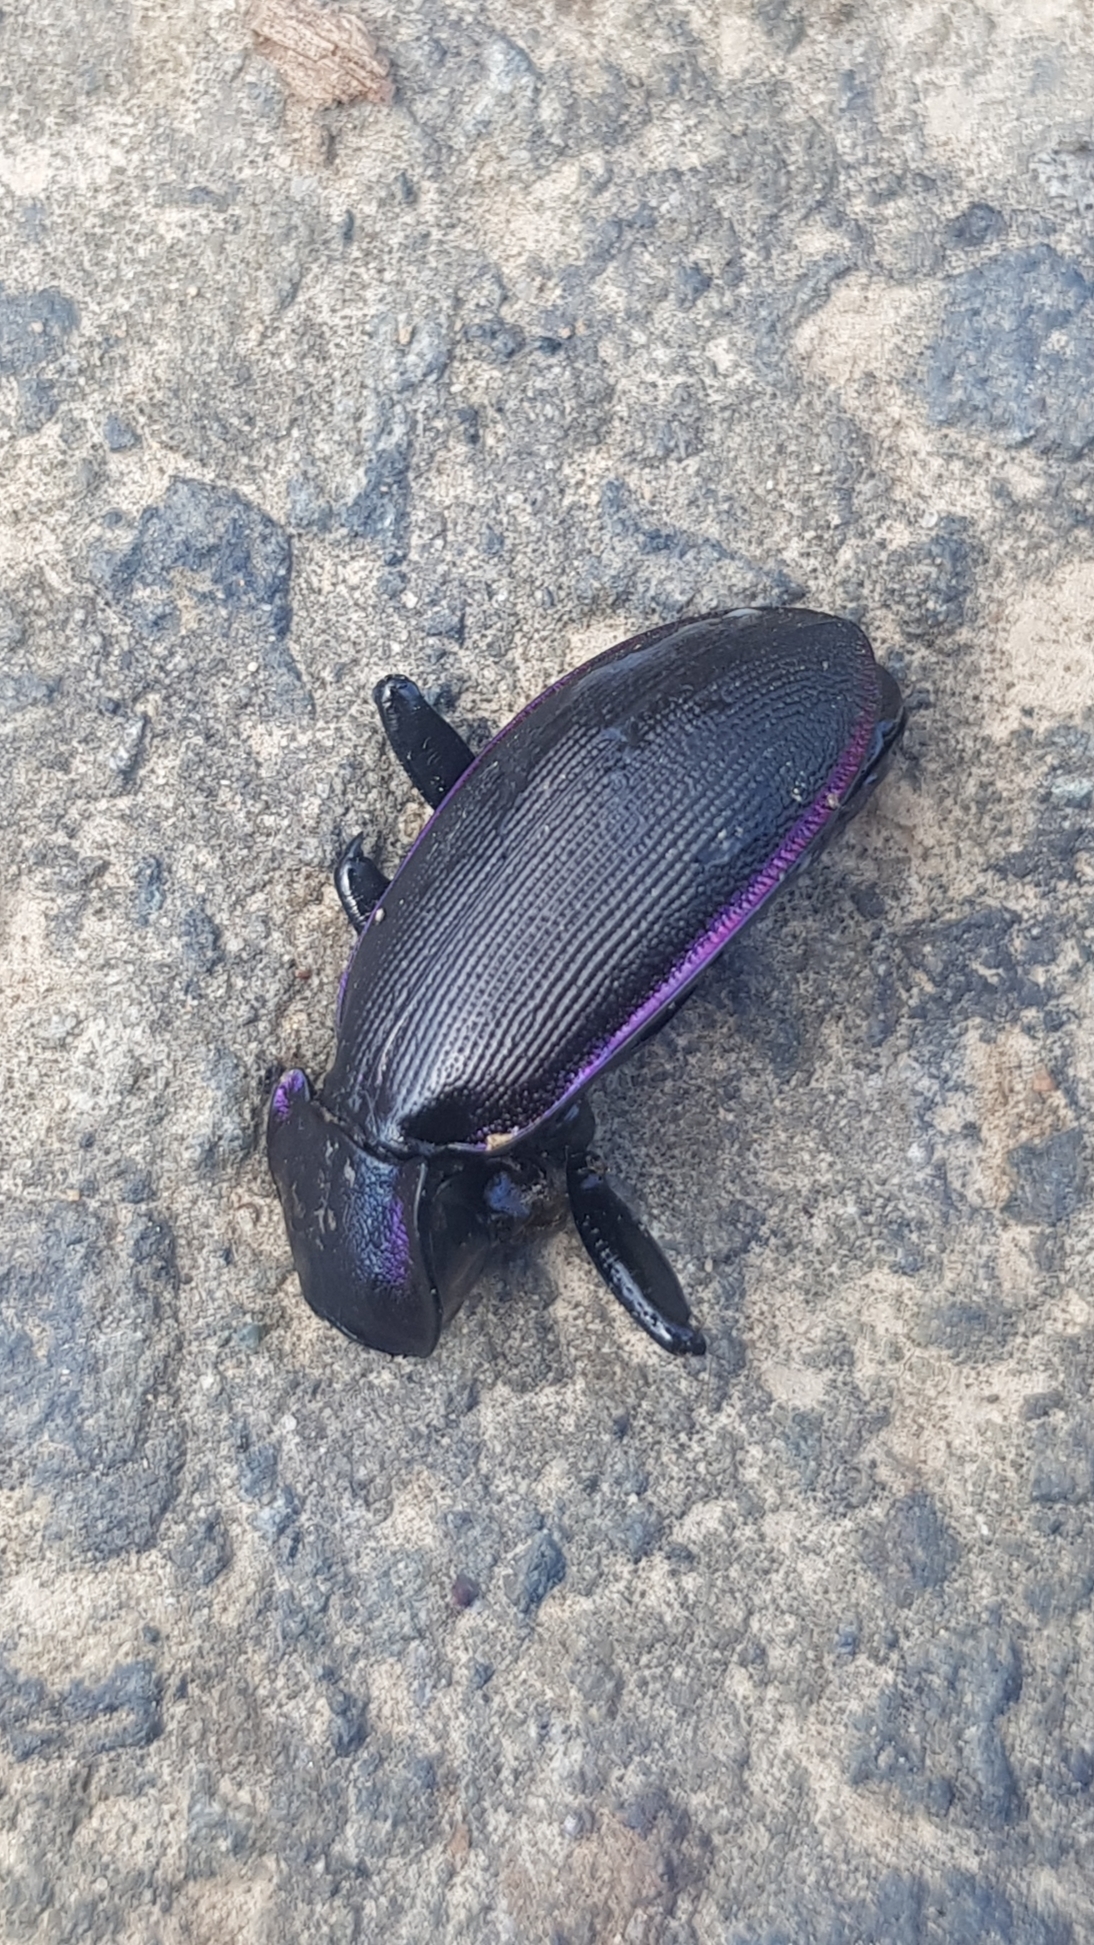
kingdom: Animalia
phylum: Arthropoda
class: Insecta
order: Coleoptera
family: Carabidae
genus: Carabus
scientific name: Carabus purpurascens
